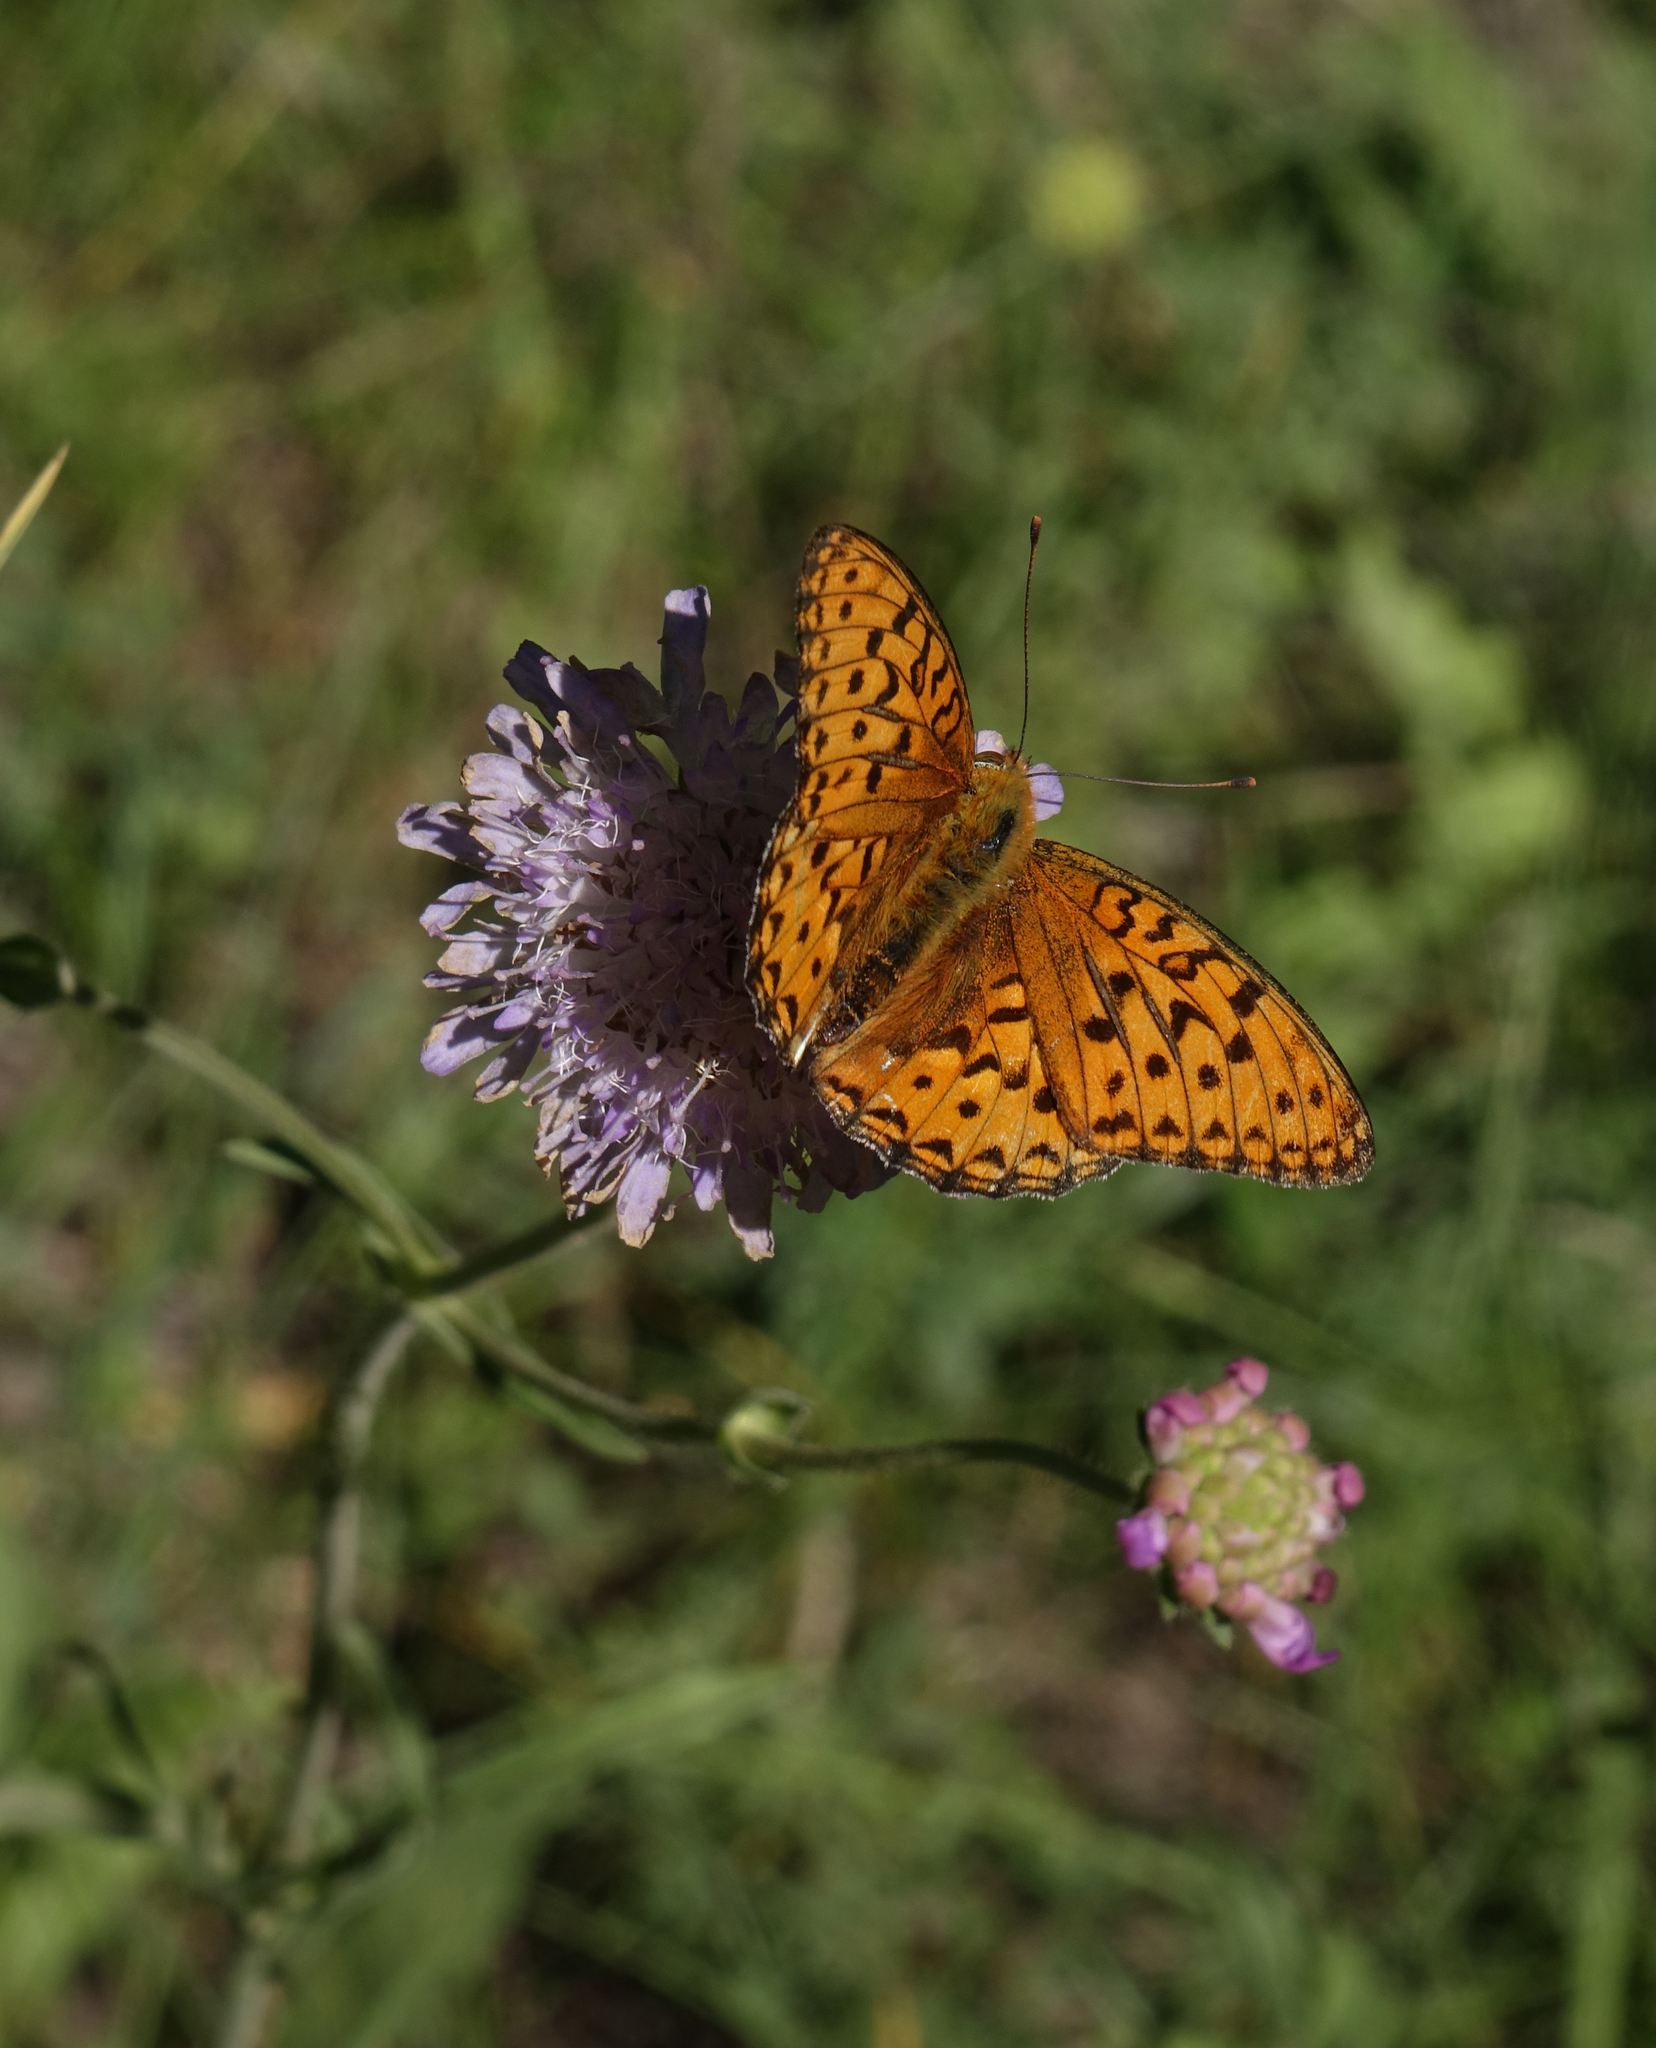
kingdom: Animalia
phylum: Arthropoda
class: Insecta
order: Lepidoptera
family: Nymphalidae
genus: Fabriciana
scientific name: Fabriciana adippe
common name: High brown fritillary
